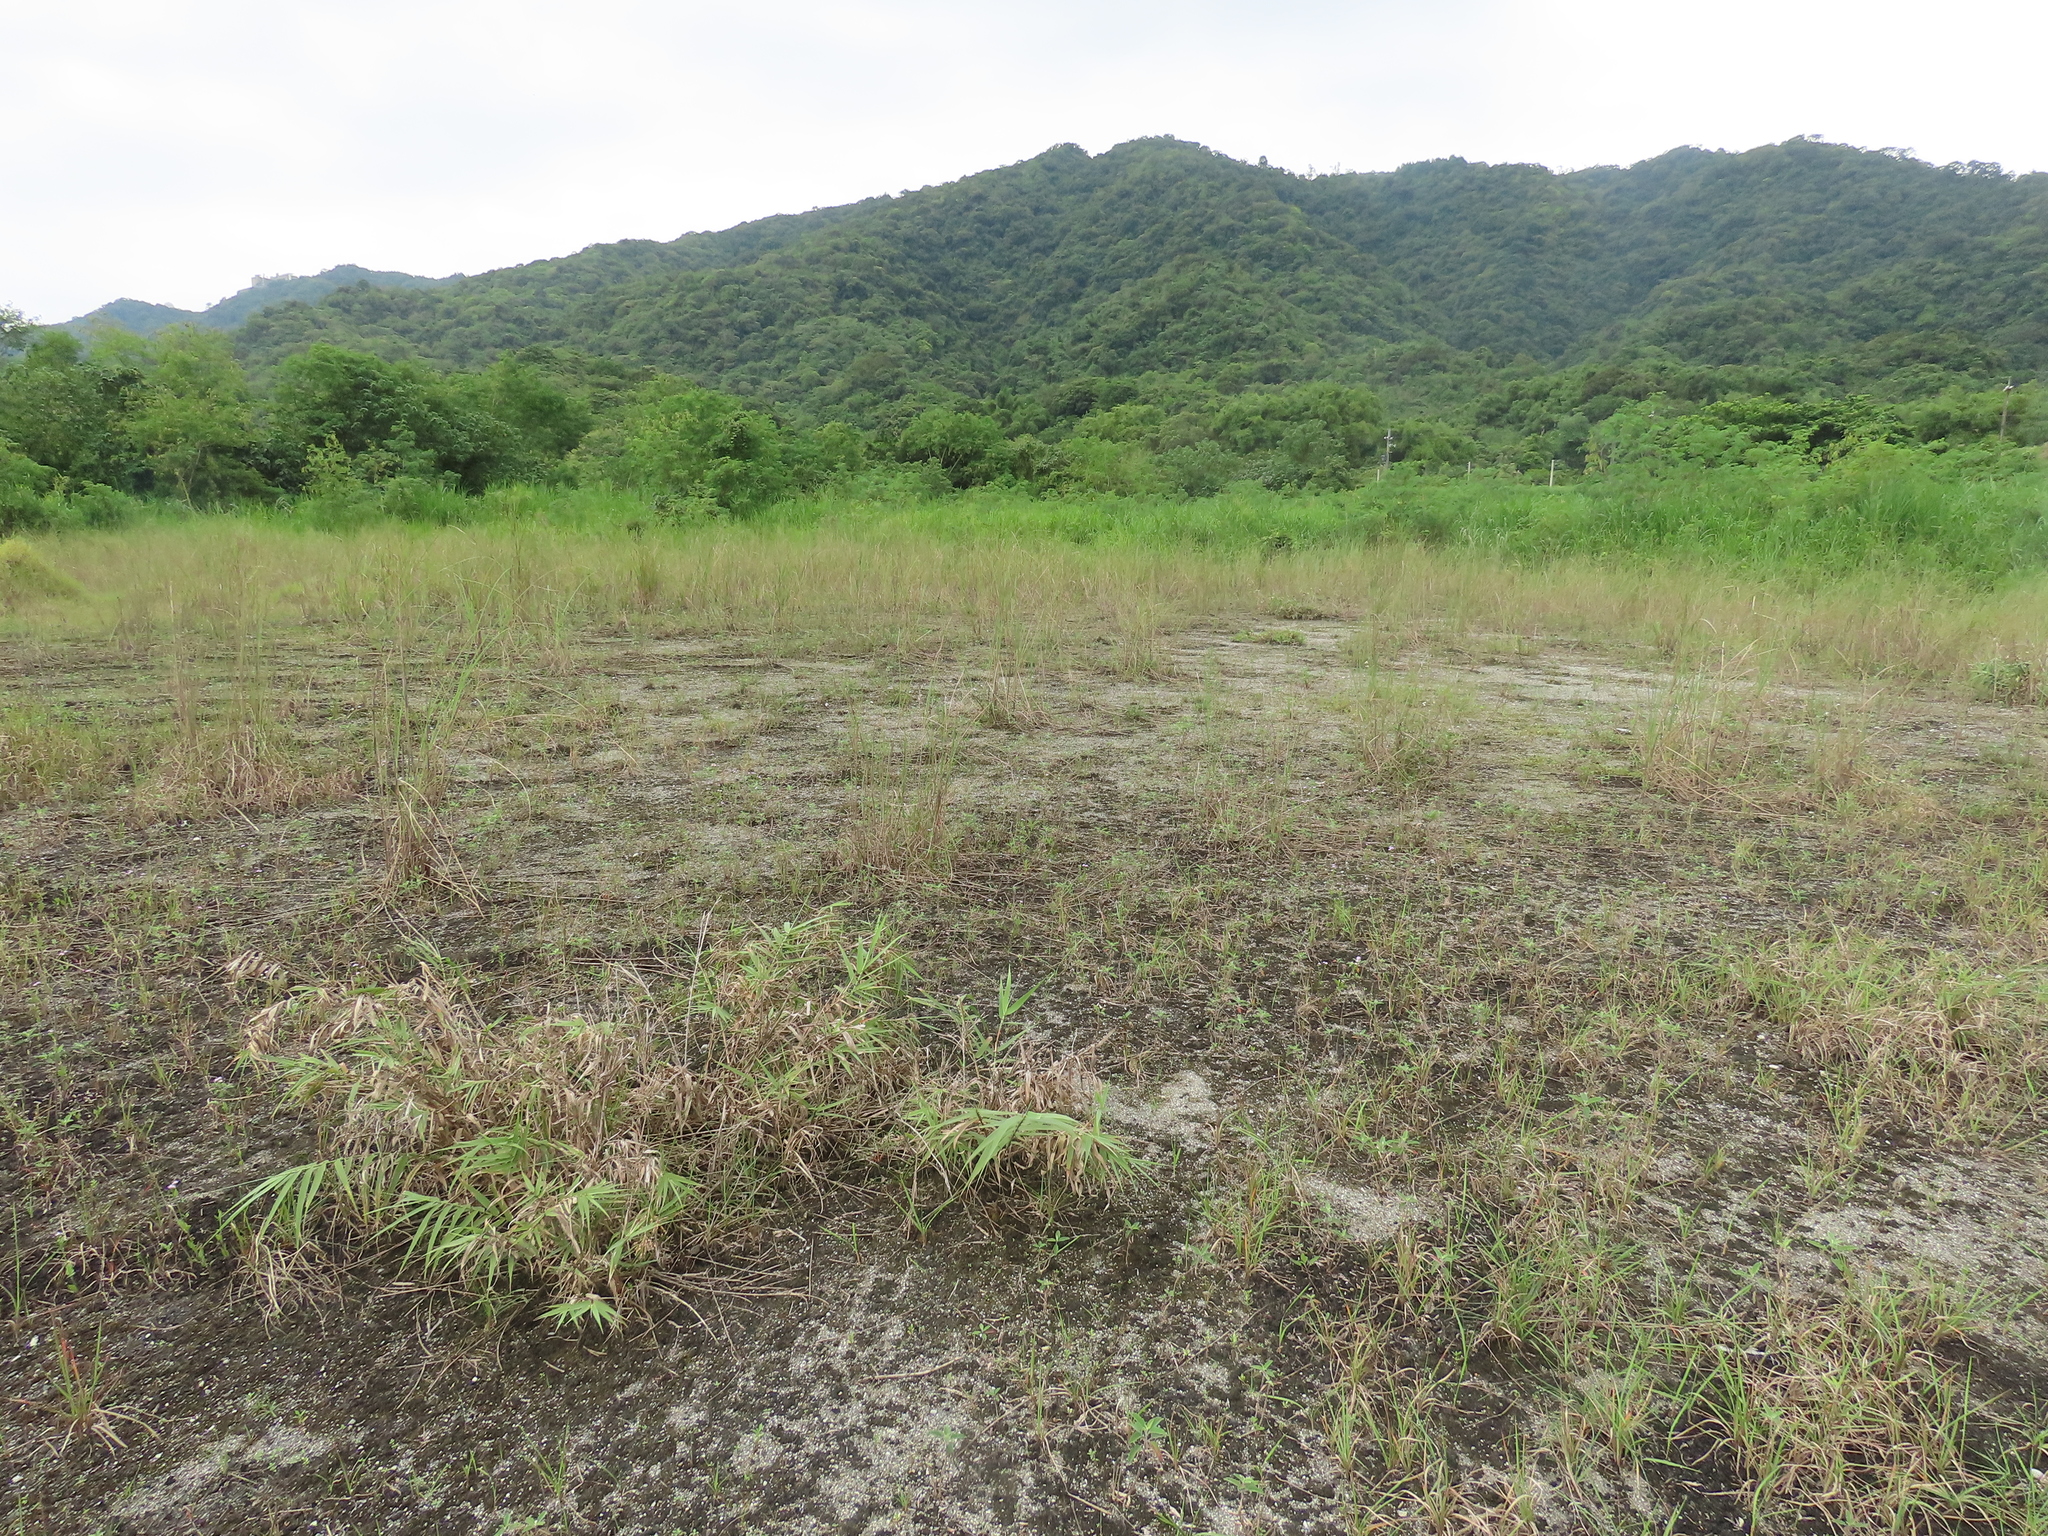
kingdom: Plantae
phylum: Tracheophyta
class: Liliopsida
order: Poales
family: Poaceae
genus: Arundo
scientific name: Arundo formosana
